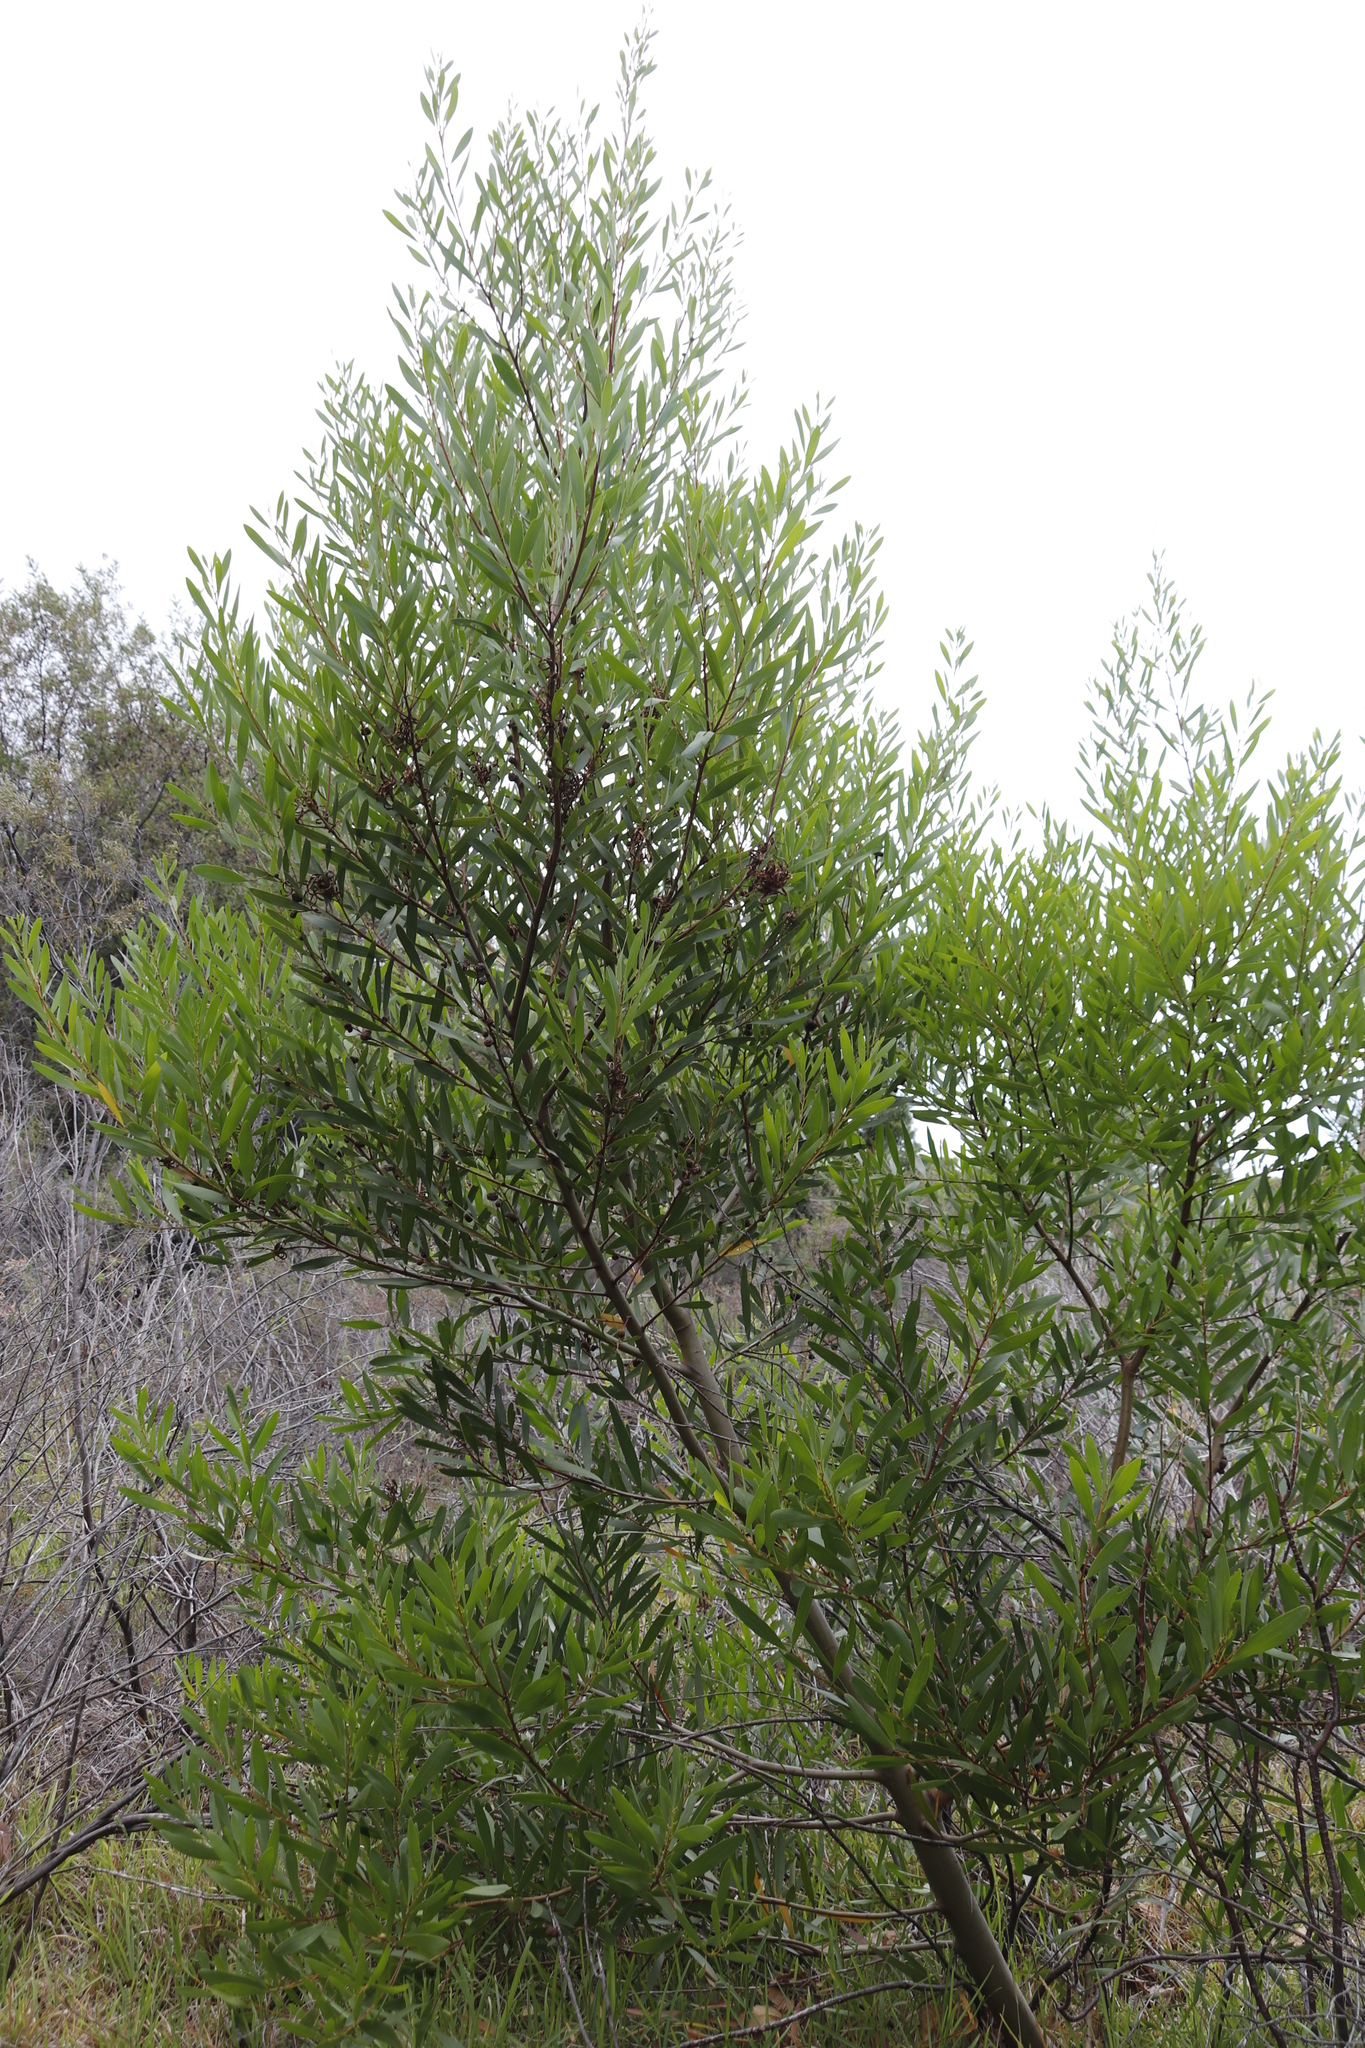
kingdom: Plantae
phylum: Tracheophyta
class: Magnoliopsida
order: Fabales
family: Fabaceae
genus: Acacia
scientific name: Acacia longifolia
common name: Sydney golden wattle
